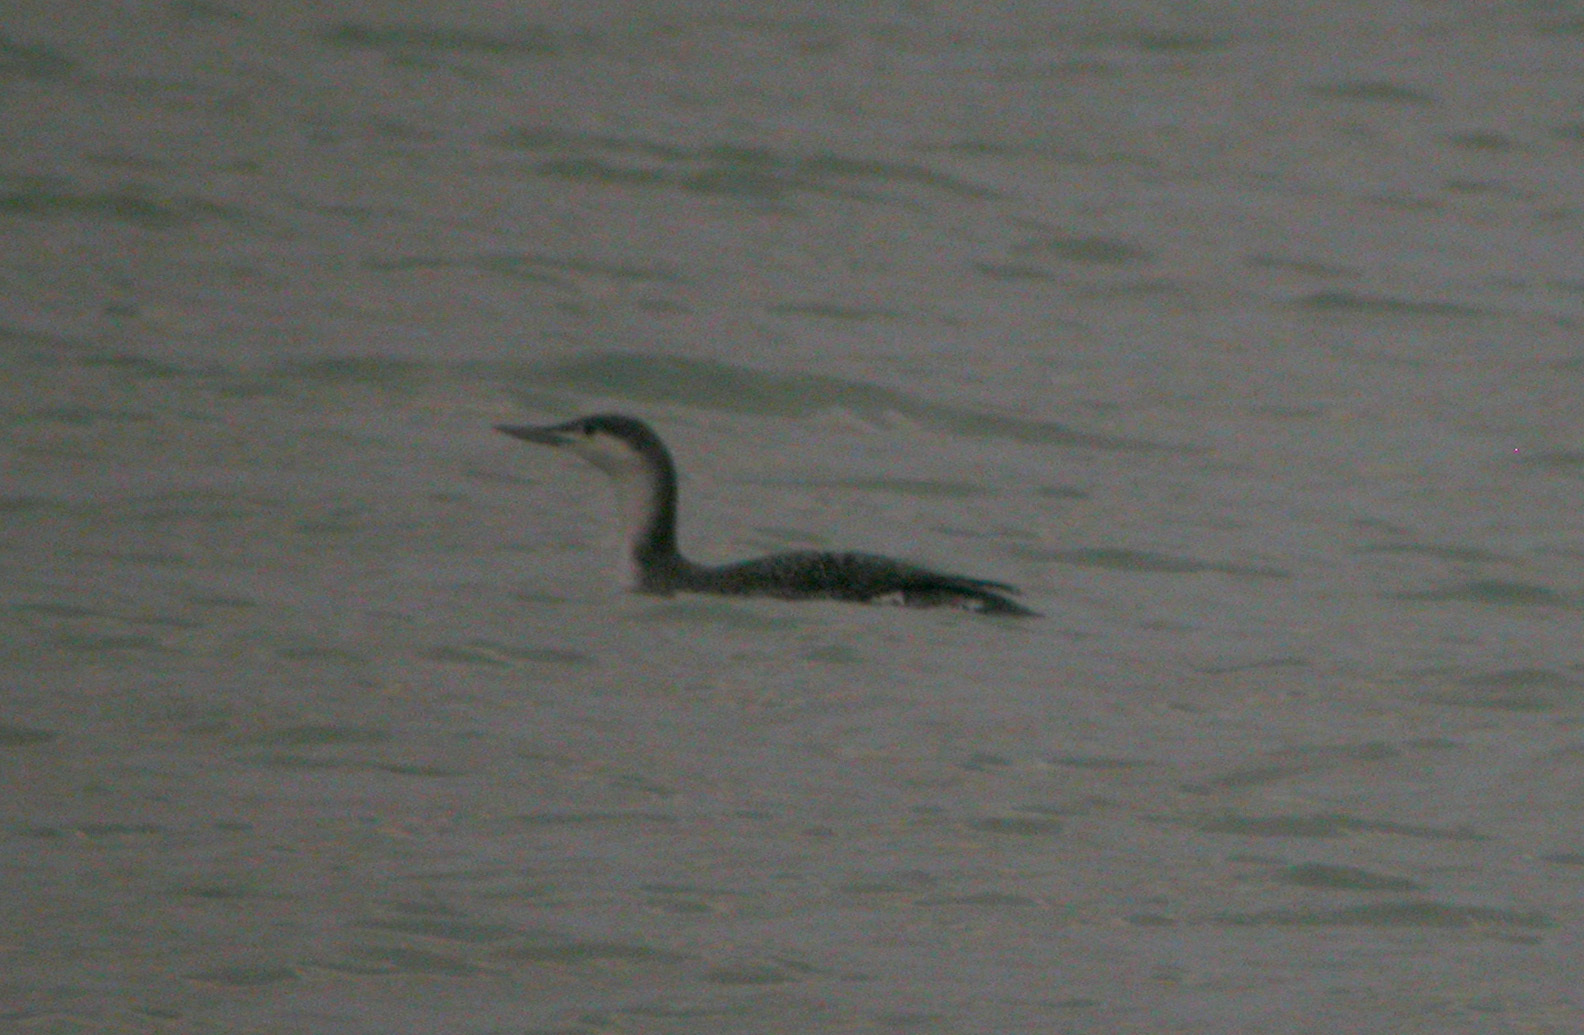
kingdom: Animalia
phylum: Chordata
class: Aves
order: Gaviiformes
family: Gaviidae
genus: Gavia
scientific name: Gavia stellata
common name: Red-throated loon
